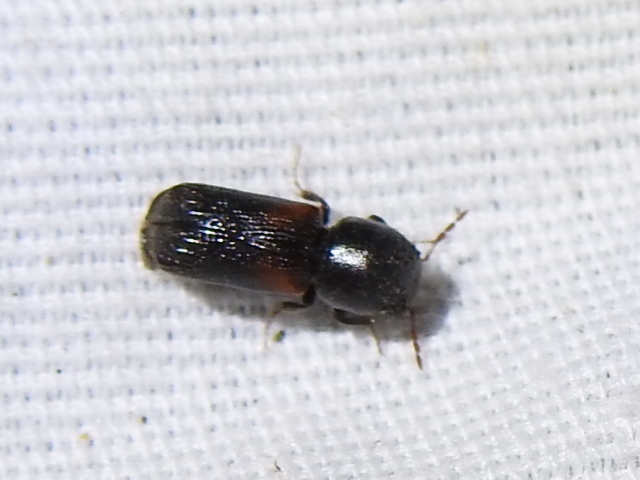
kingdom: Animalia
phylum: Arthropoda
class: Insecta
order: Coleoptera
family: Bostrichidae
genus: Xylobiops
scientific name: Xylobiops basilaris
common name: Red-shouldered bostrichid
